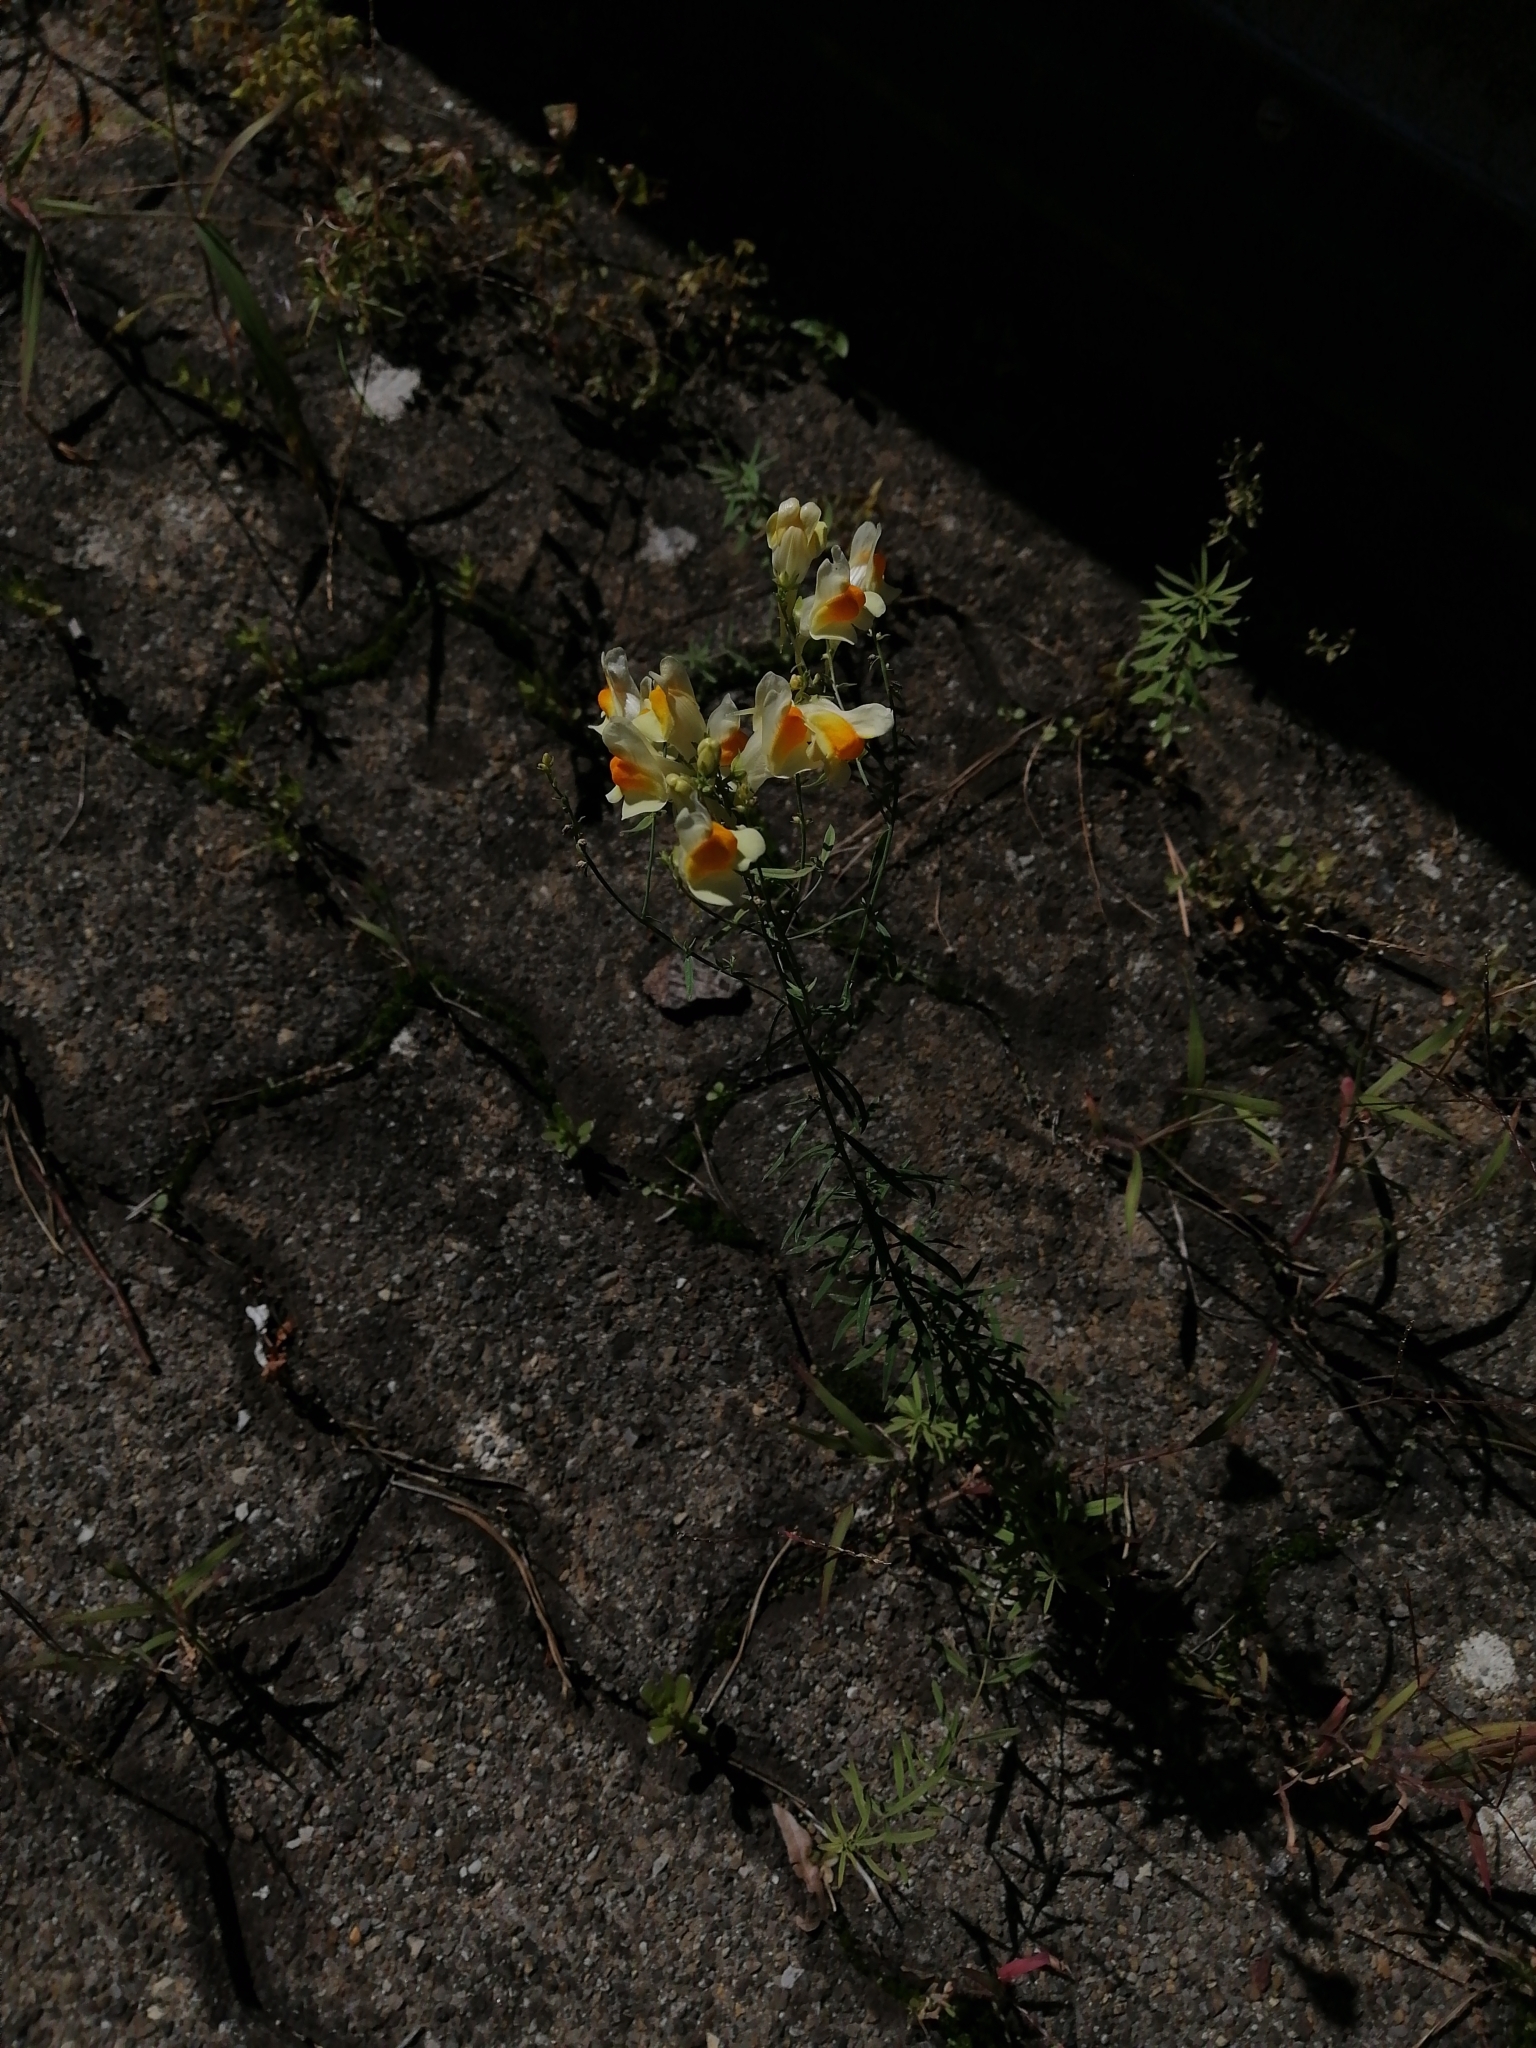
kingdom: Plantae
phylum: Tracheophyta
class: Magnoliopsida
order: Lamiales
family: Plantaginaceae
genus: Linaria
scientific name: Linaria vulgaris
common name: Butter and eggs
